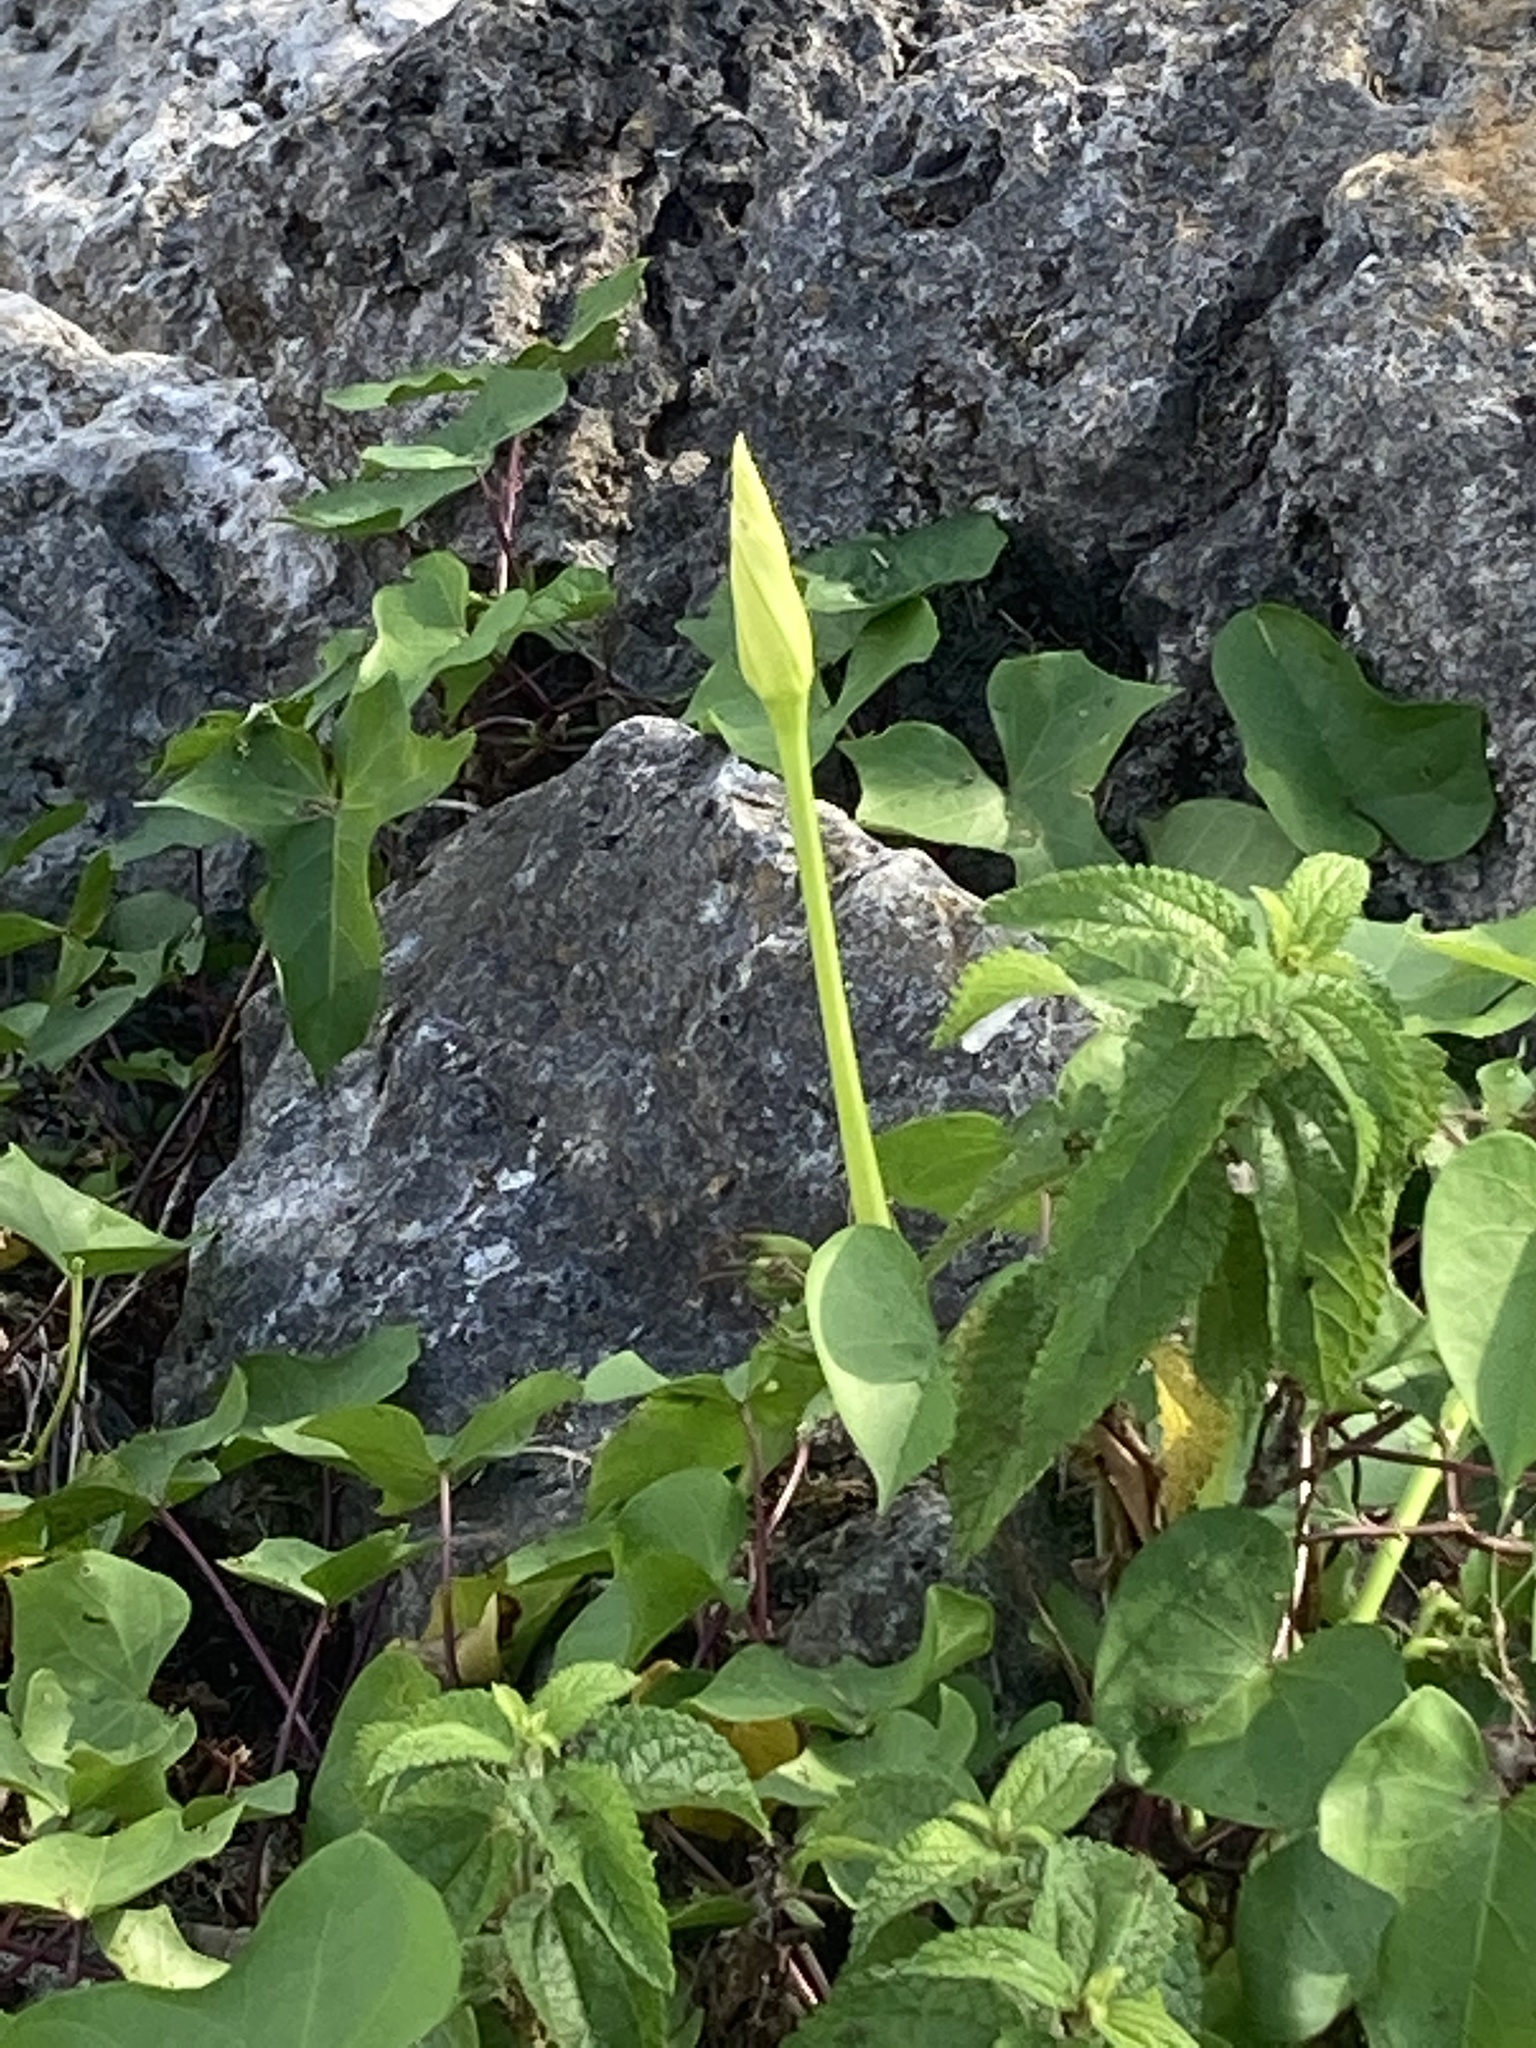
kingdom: Plantae
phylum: Tracheophyta
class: Magnoliopsida
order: Rosales
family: Urticaceae
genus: Boehmeria
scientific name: Boehmeria cylindrica
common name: Bog-hemp
